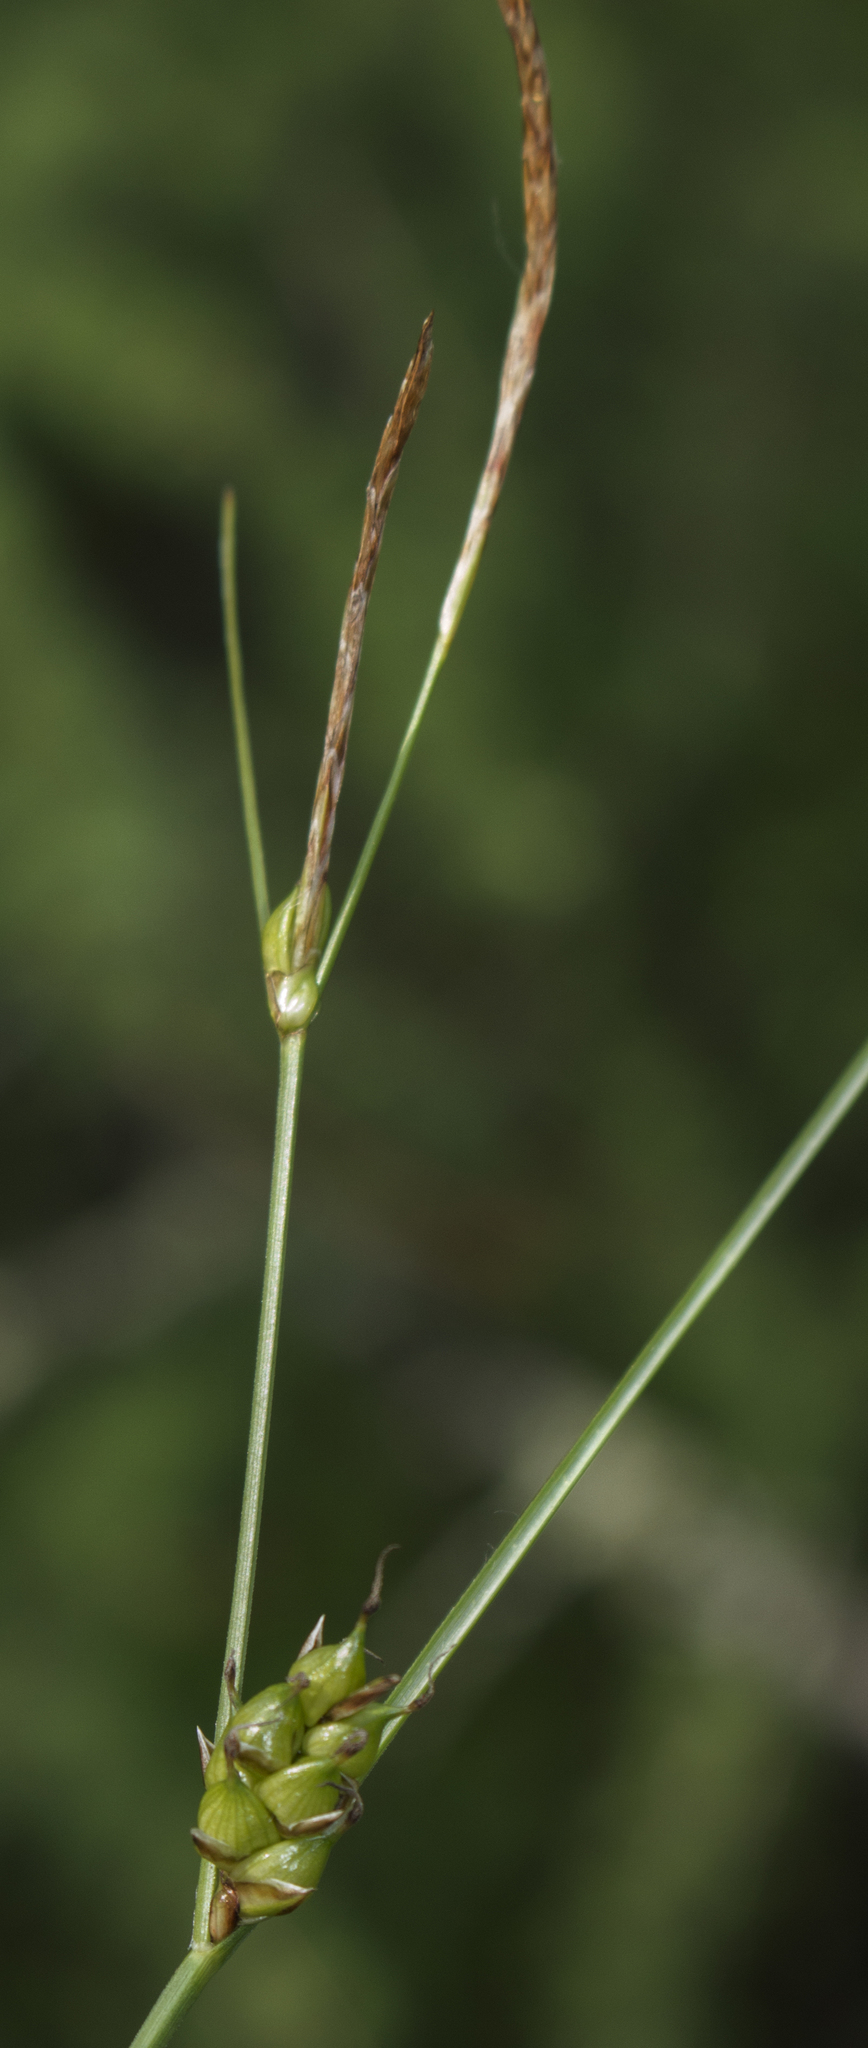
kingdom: Plantae
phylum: Tracheophyta
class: Liliopsida
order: Poales
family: Cyperaceae
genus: Carex
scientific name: Carex oligosperma
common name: Few-seed sedge
